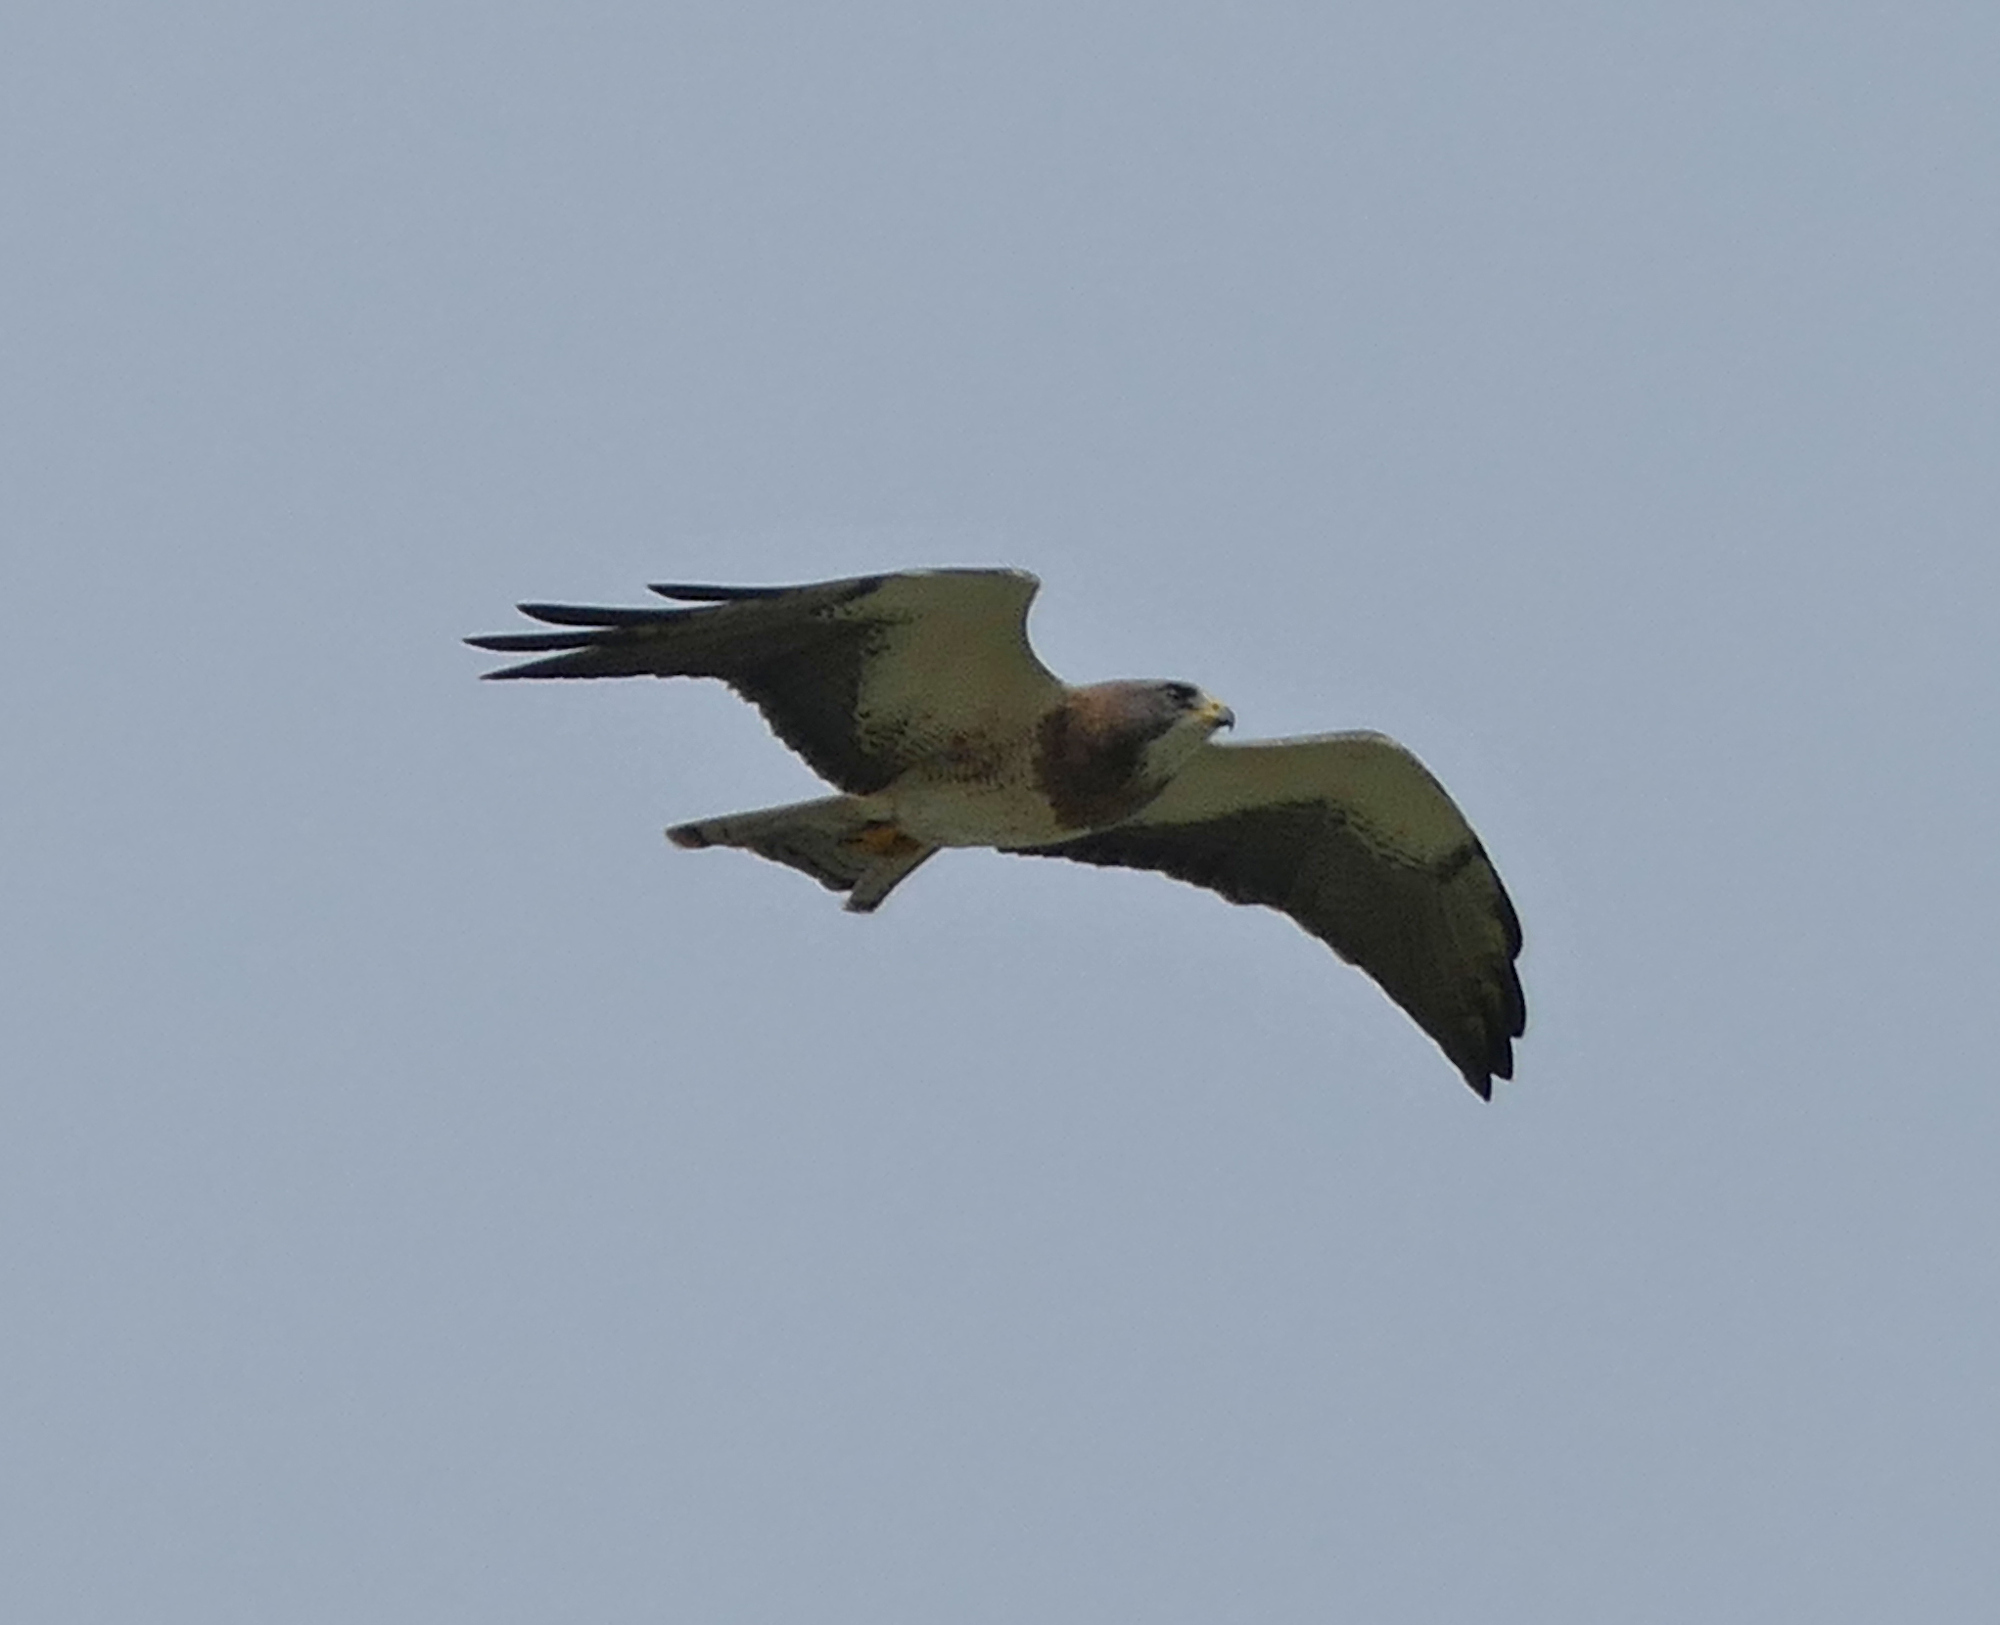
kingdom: Animalia
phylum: Chordata
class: Aves
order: Accipitriformes
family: Accipitridae
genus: Buteo
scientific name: Buteo swainsoni
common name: Swainson's hawk
